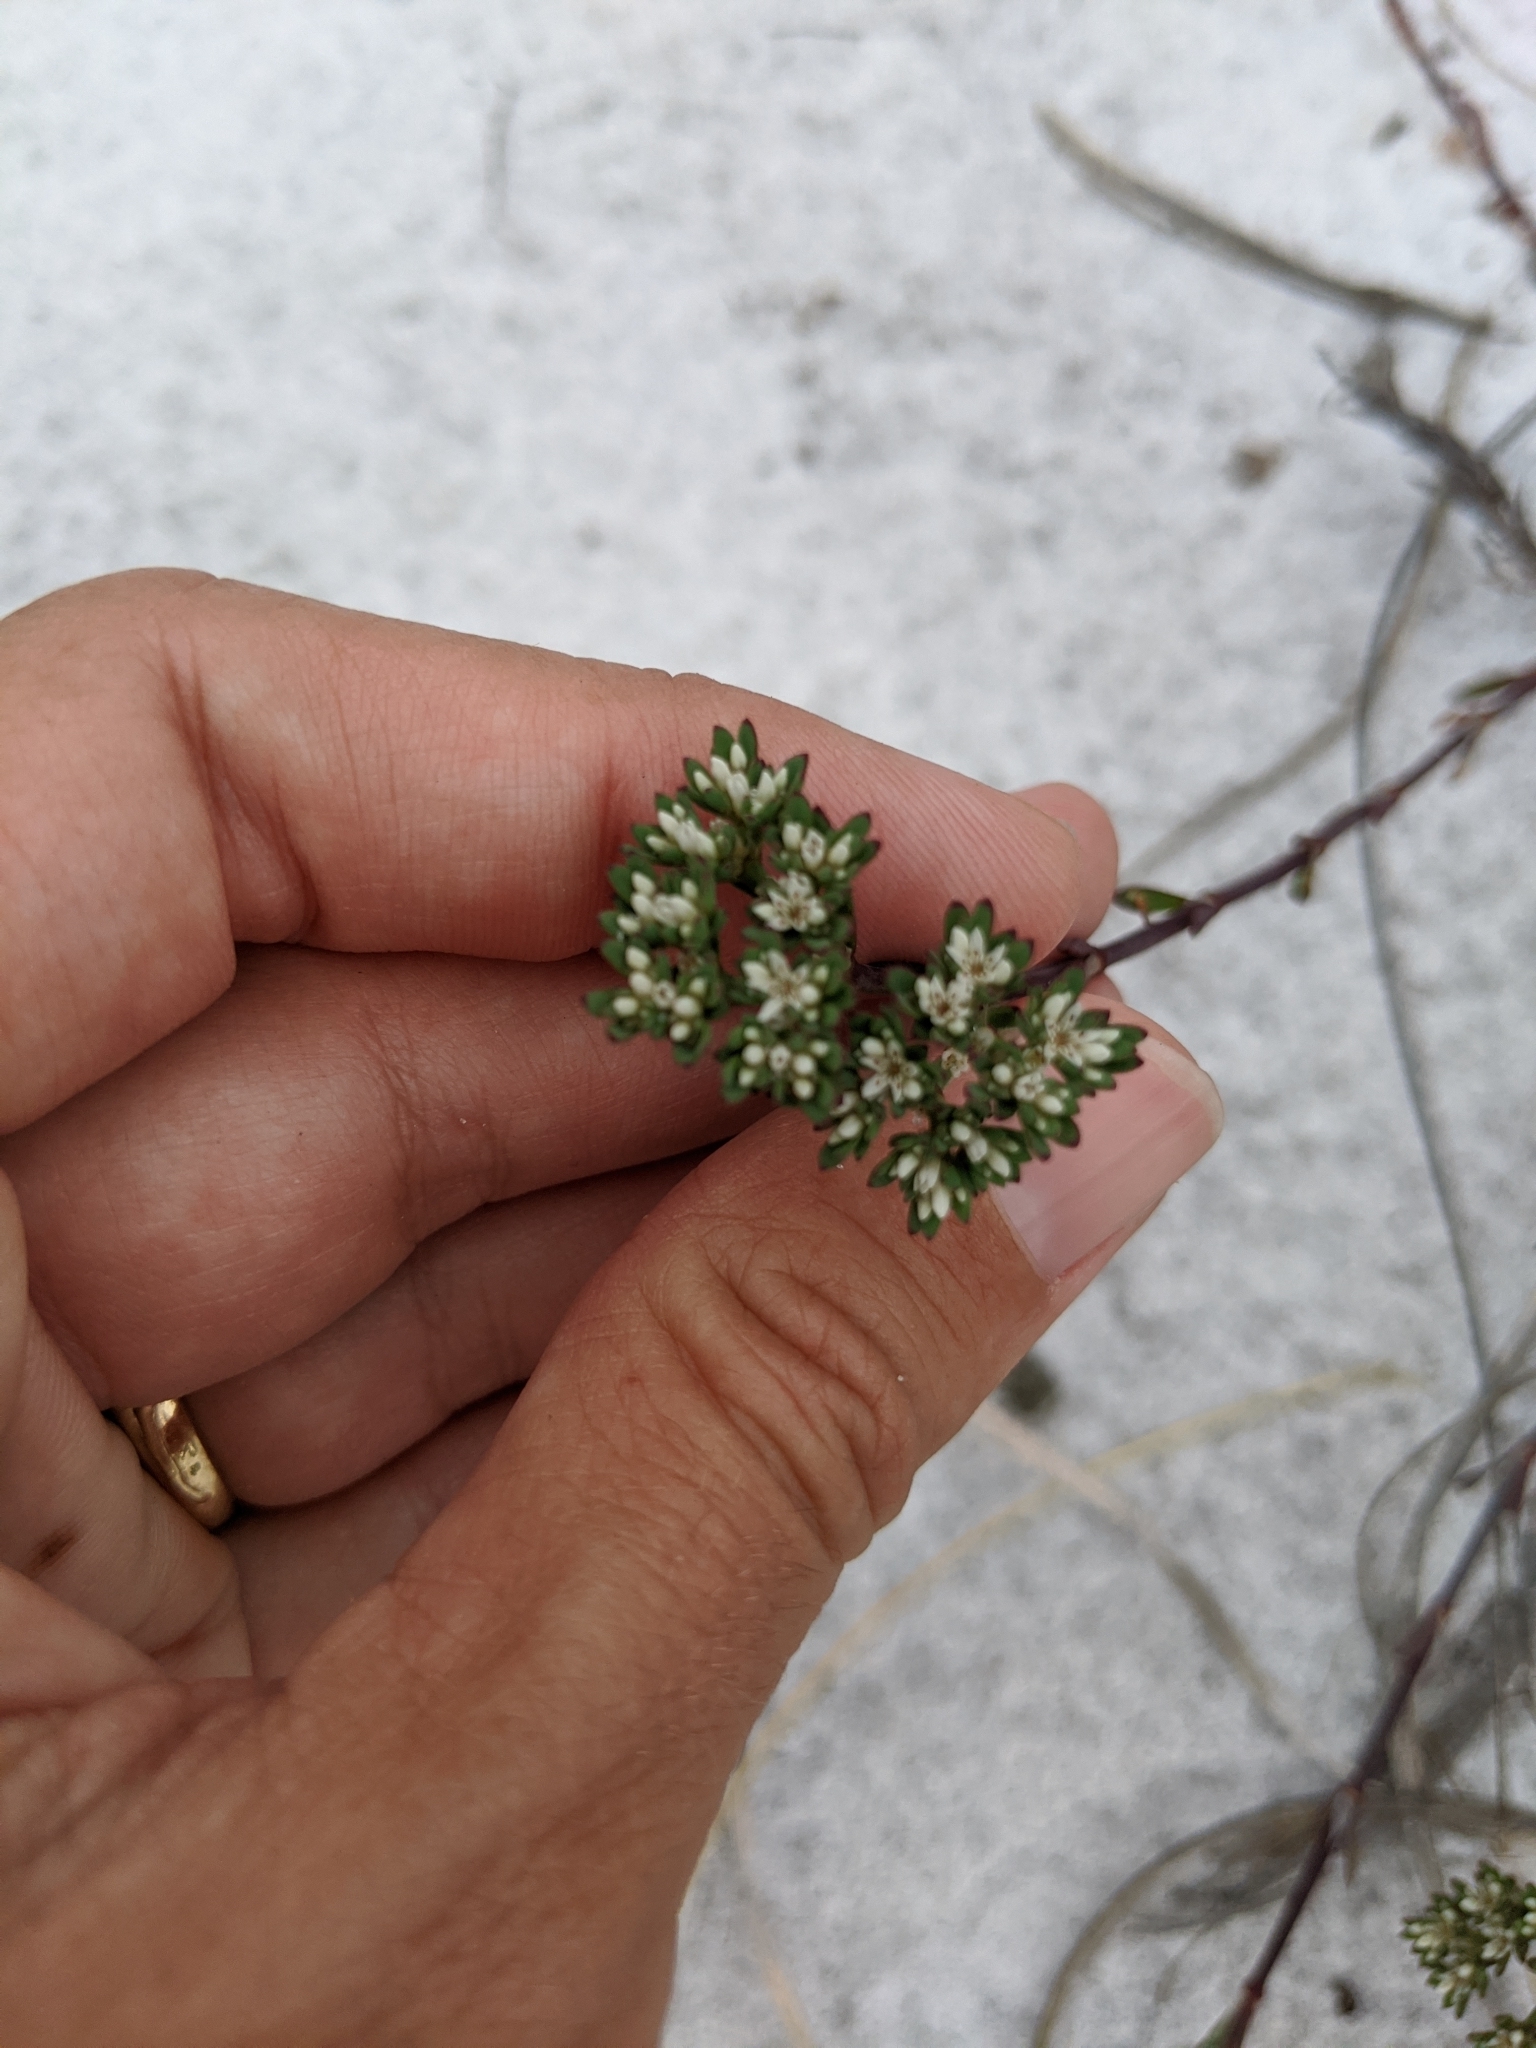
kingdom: Plantae
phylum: Tracheophyta
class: Magnoliopsida
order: Caryophyllales
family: Caryophyllaceae
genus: Paronychia
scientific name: Paronychia erecta
